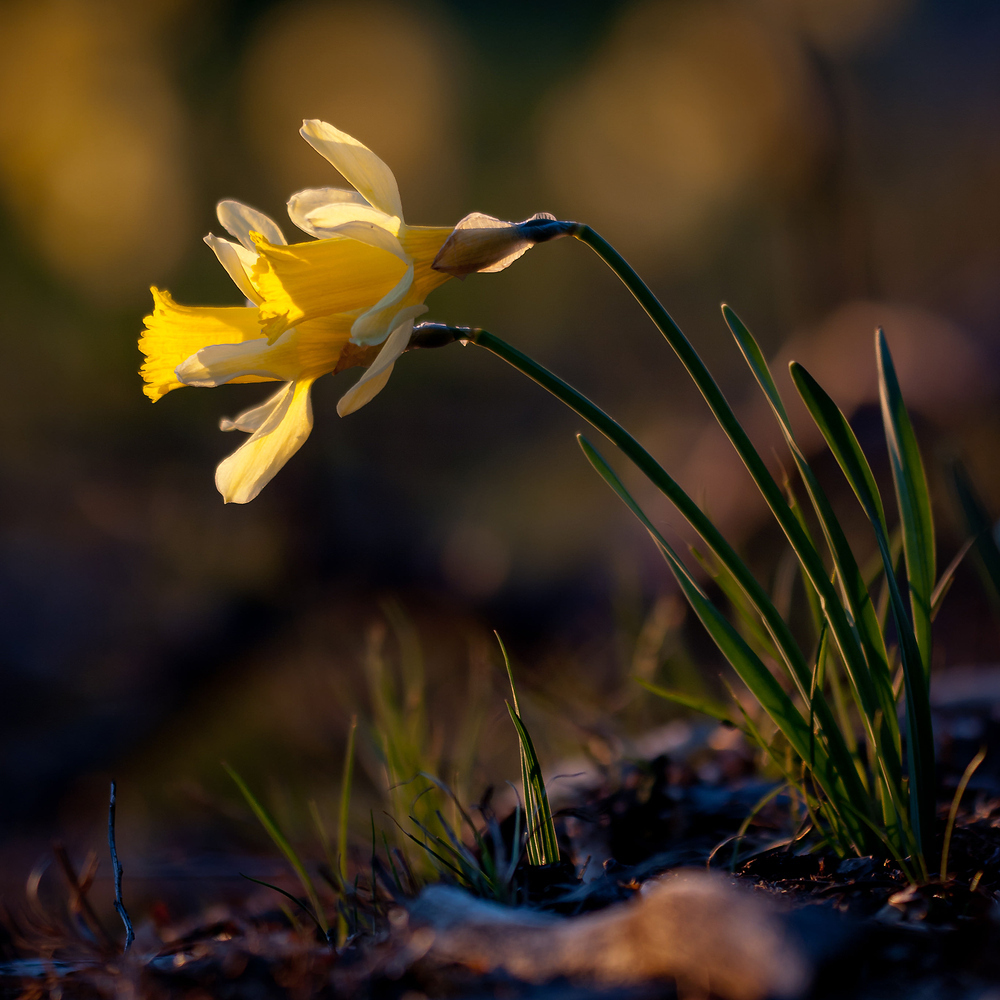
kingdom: Plantae
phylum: Tracheophyta
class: Liliopsida
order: Asparagales
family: Amaryllidaceae
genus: Narcissus
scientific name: Narcissus pseudonarcissus
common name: Daffodil
